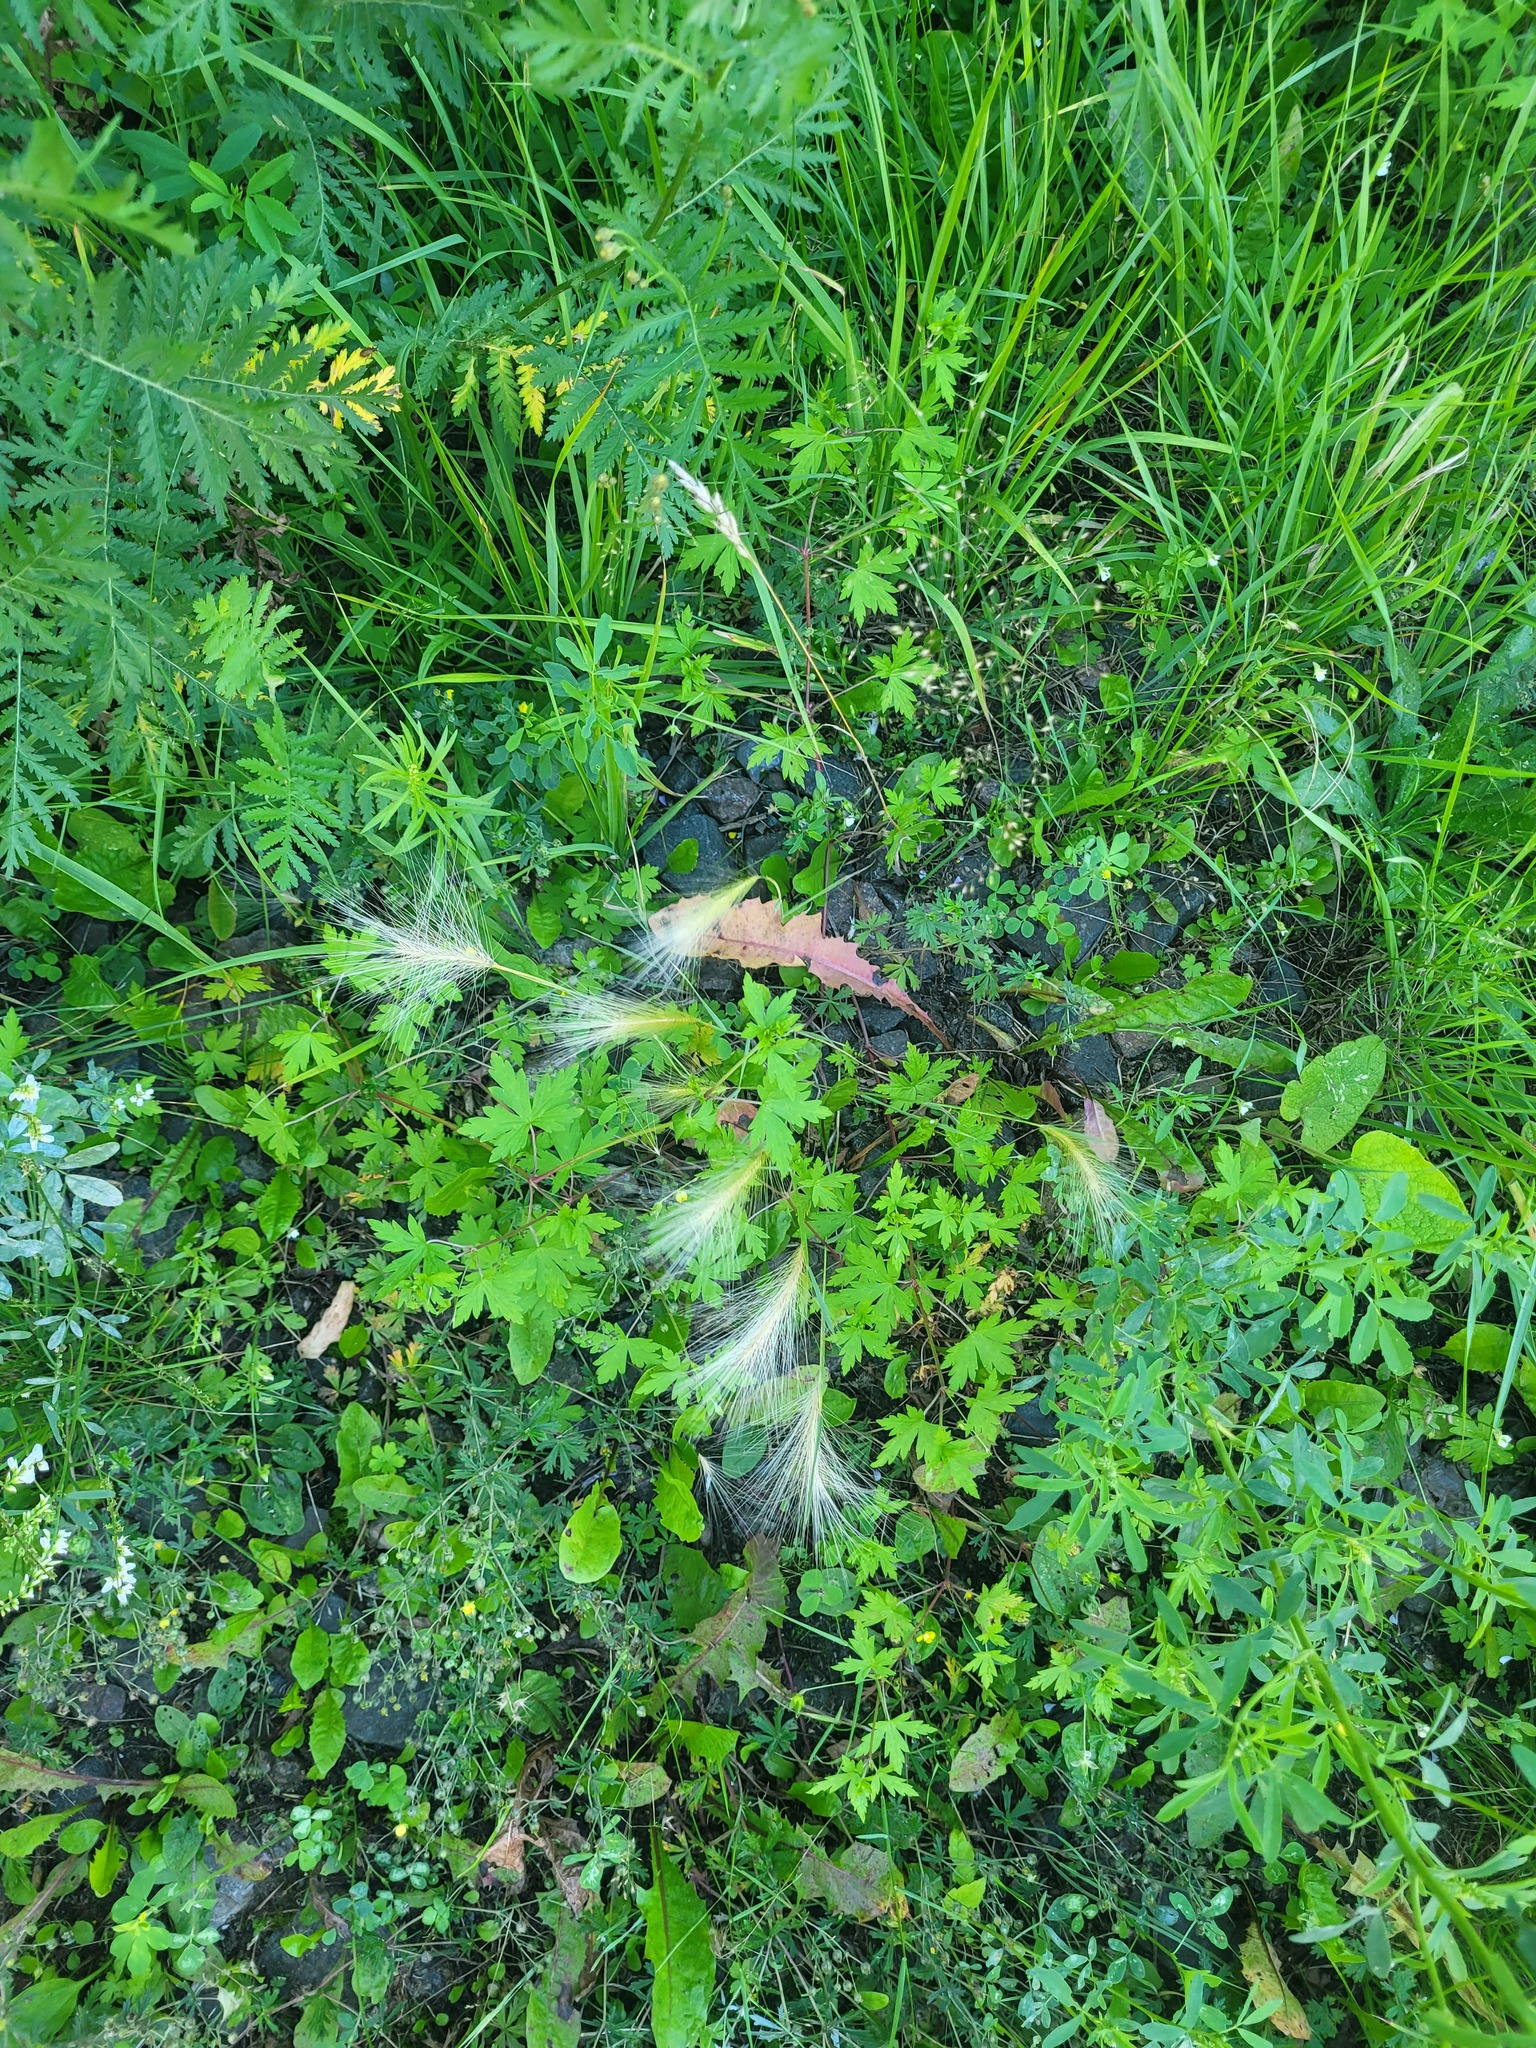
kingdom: Plantae
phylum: Tracheophyta
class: Liliopsida
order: Poales
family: Poaceae
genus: Hordeum
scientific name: Hordeum jubatum
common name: Foxtail barley
